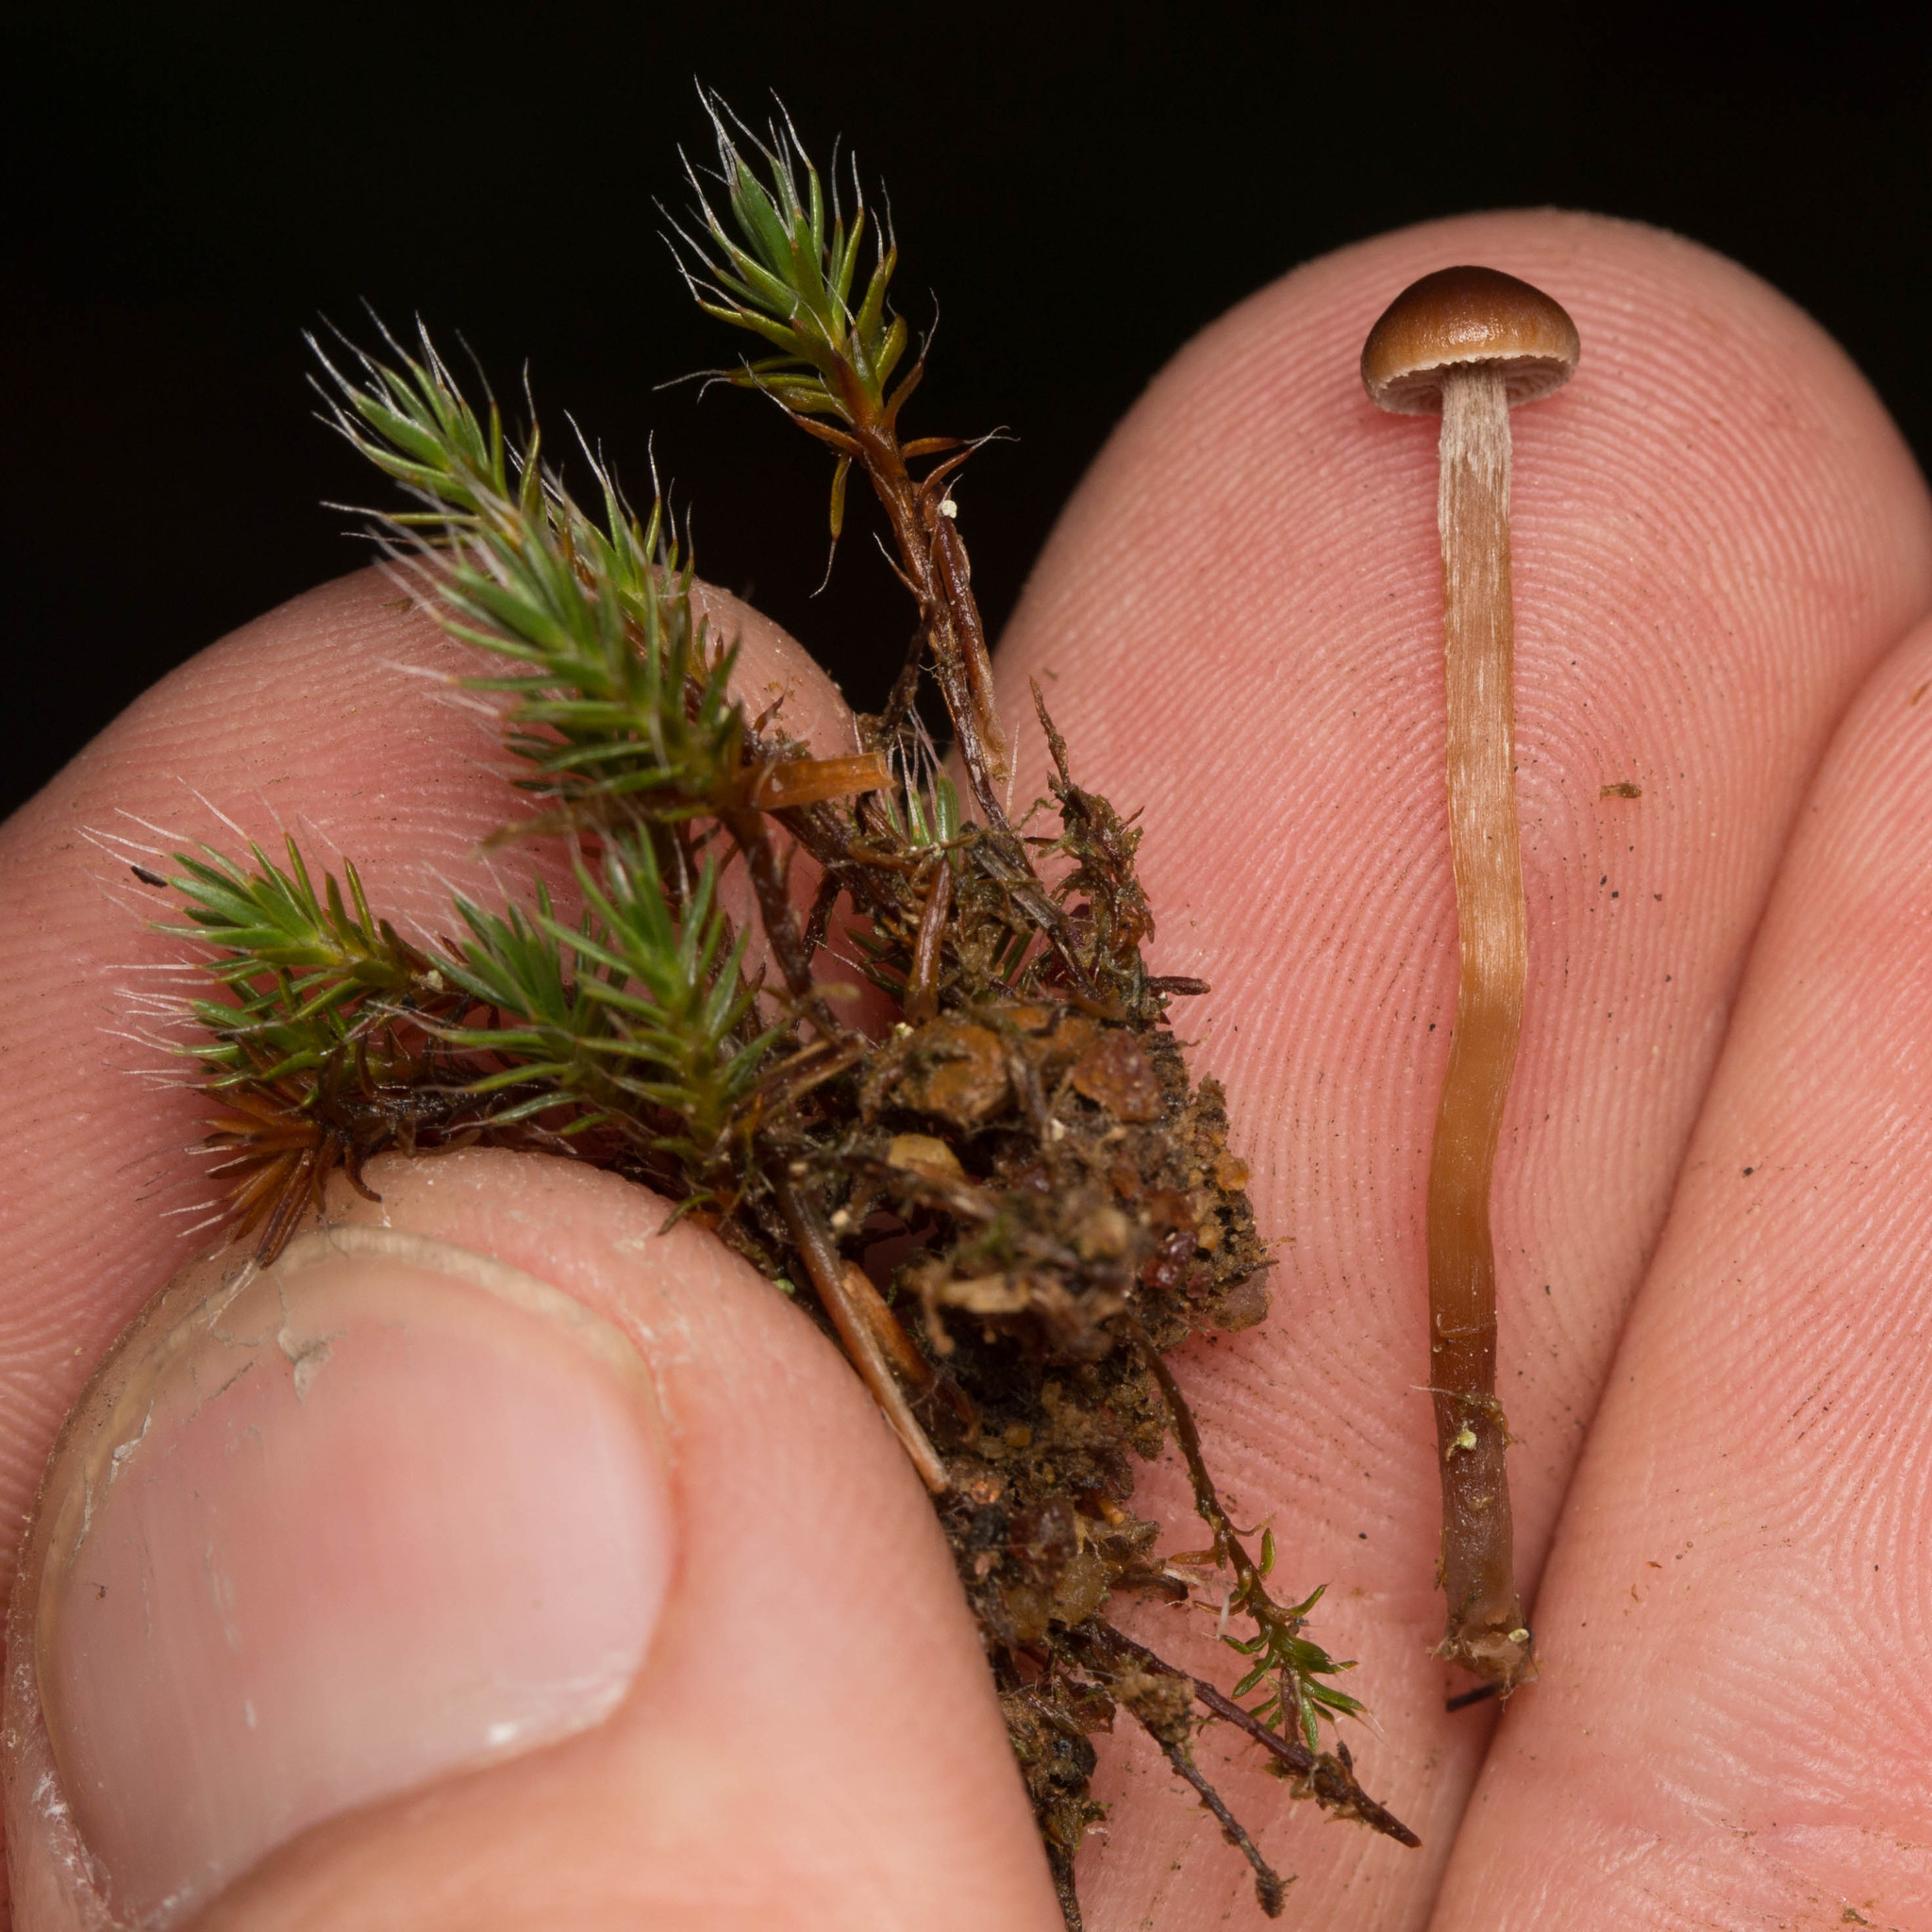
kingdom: Fungi
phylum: Basidiomycota
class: Agaricomycetes
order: Agaricales
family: Strophariaceae
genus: Deconica
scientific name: Deconica montana
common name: Mountain moss deconica
